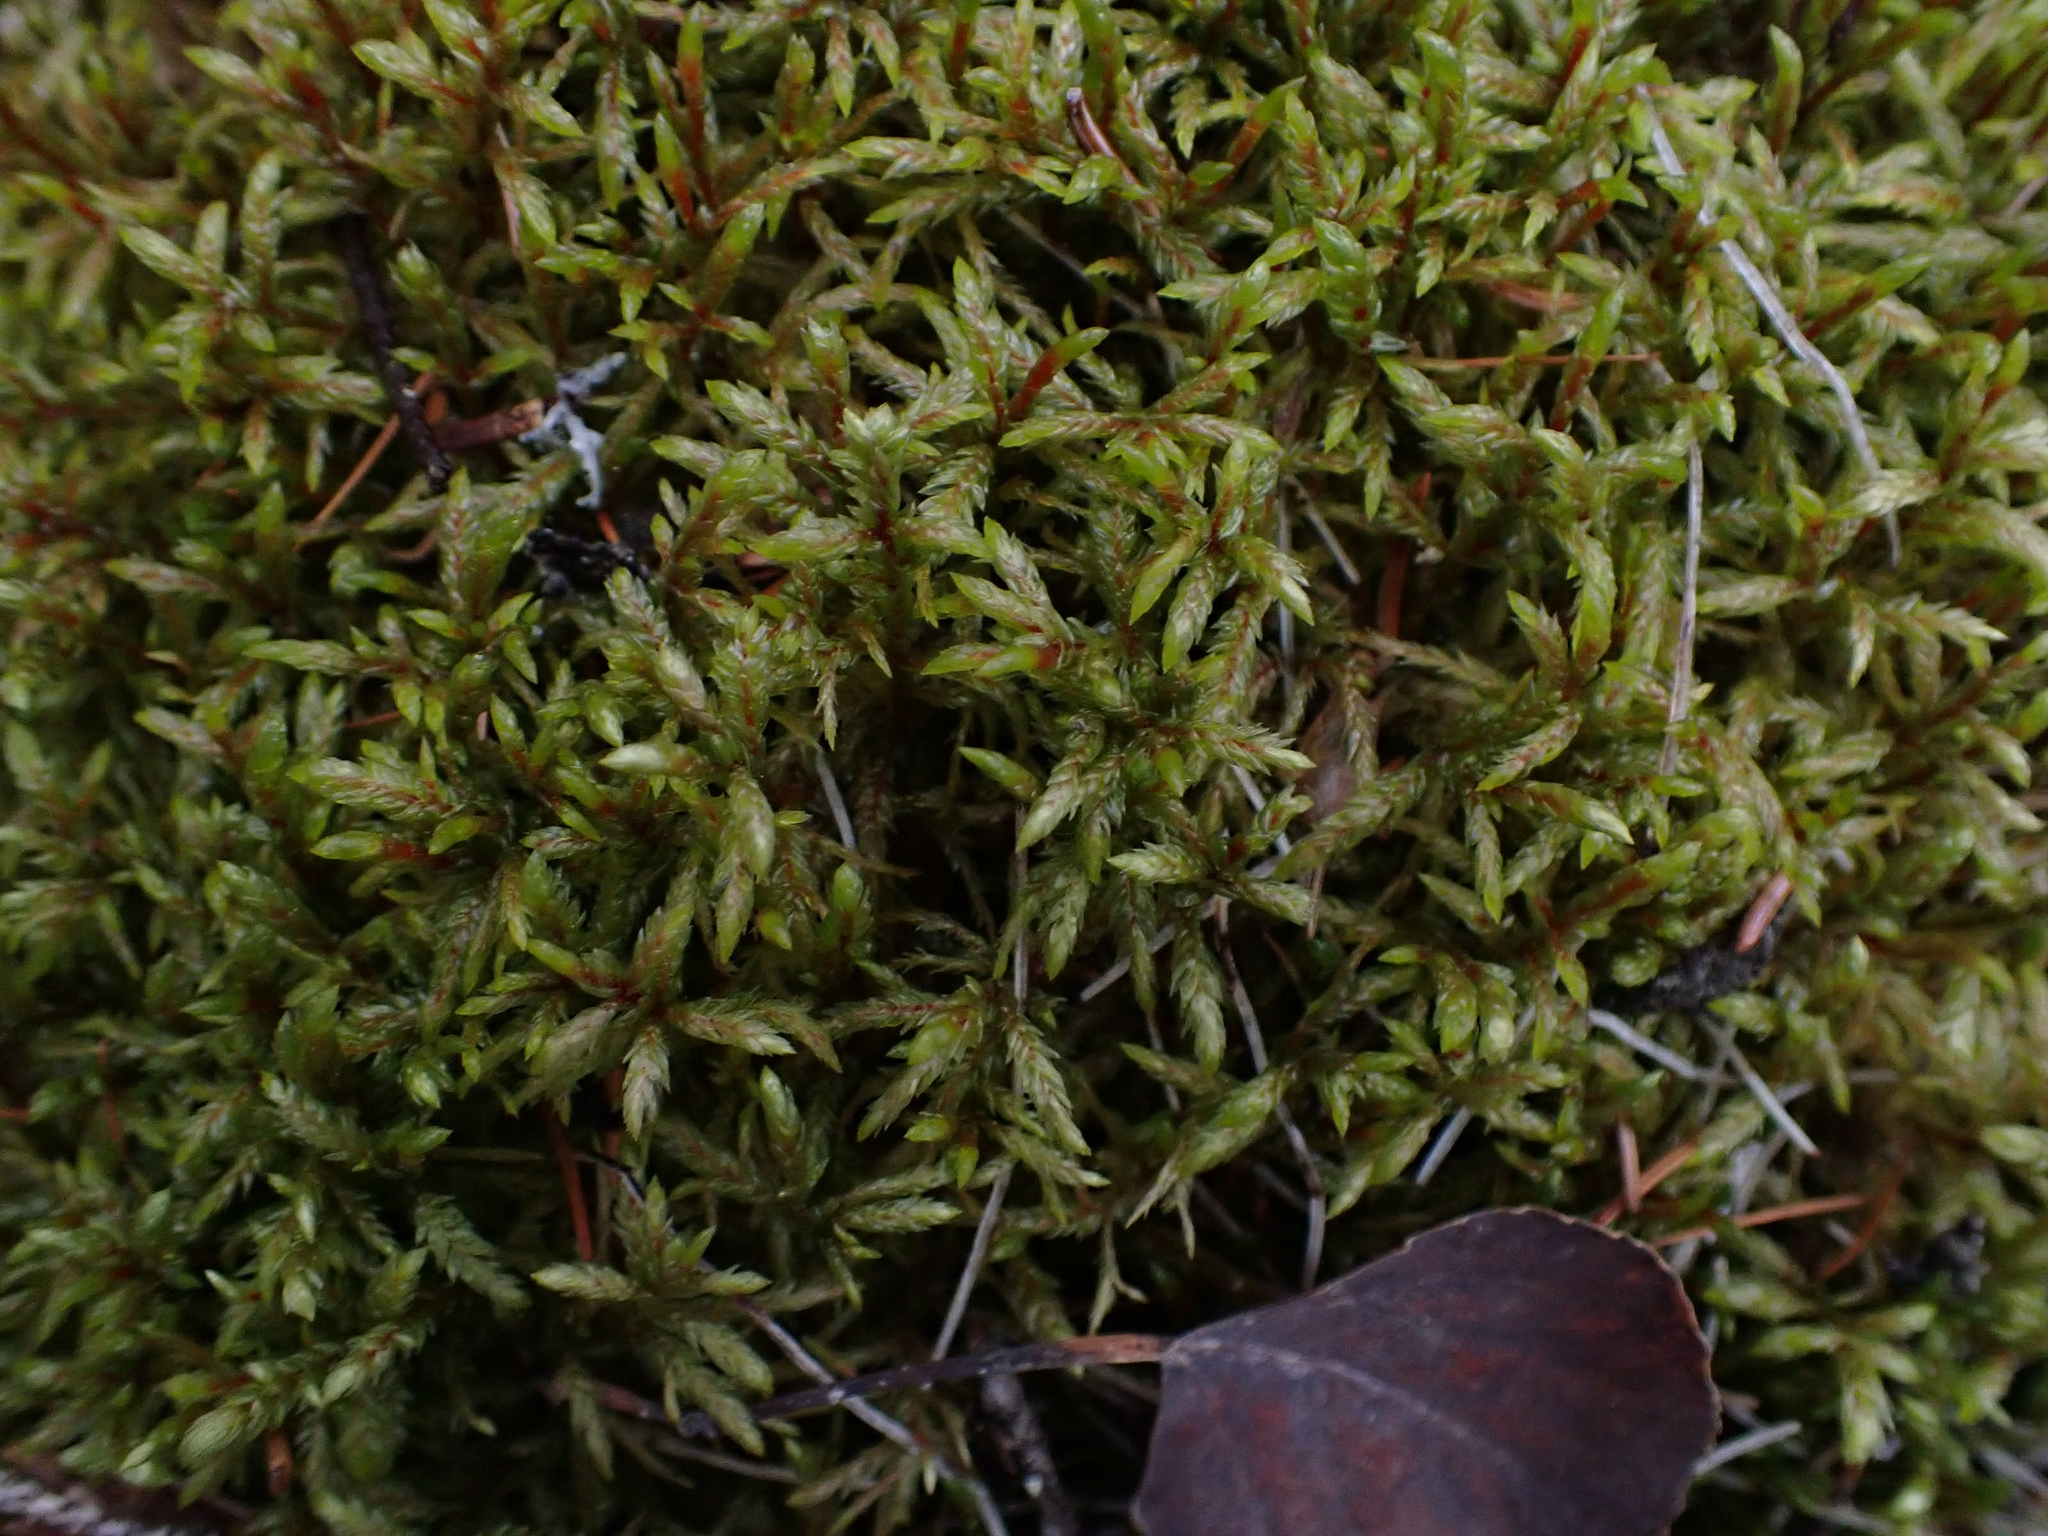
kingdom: Plantae
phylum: Bryophyta
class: Bryopsida
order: Hypnales
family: Hylocomiaceae
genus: Pleurozium
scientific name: Pleurozium schreberi
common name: Red-stemmed feather moss
